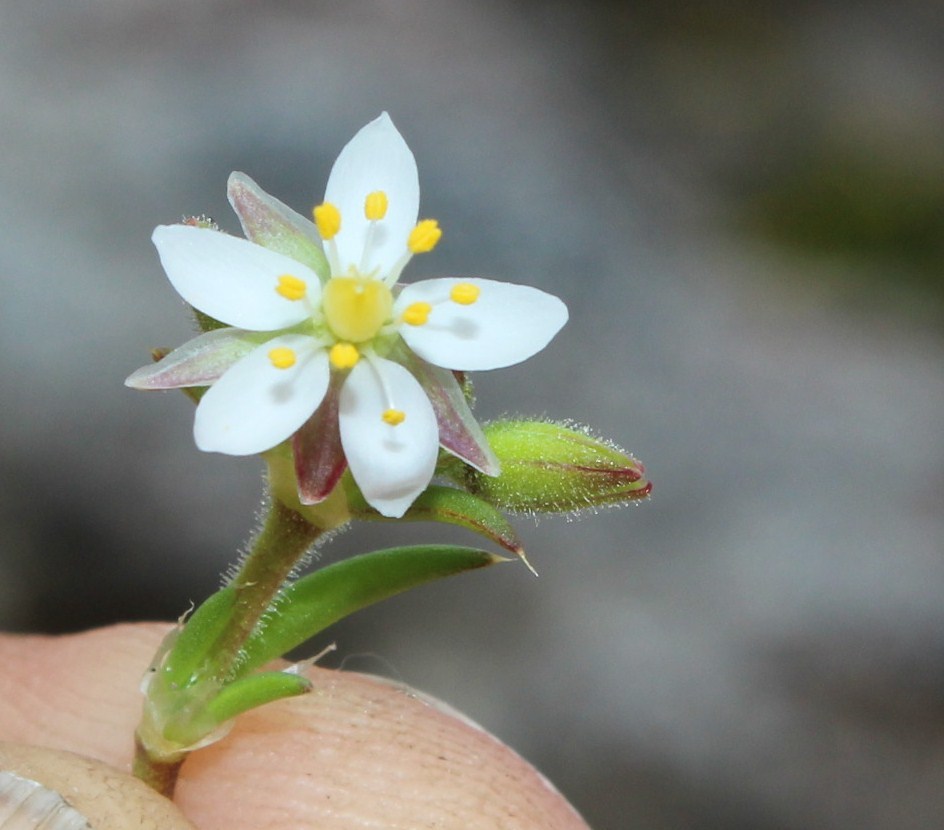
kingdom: Plantae
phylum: Tracheophyta
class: Magnoliopsida
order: Caryophyllales
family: Caryophyllaceae
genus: Spergularia
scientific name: Spergularia media
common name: Greater sea-spurrey
